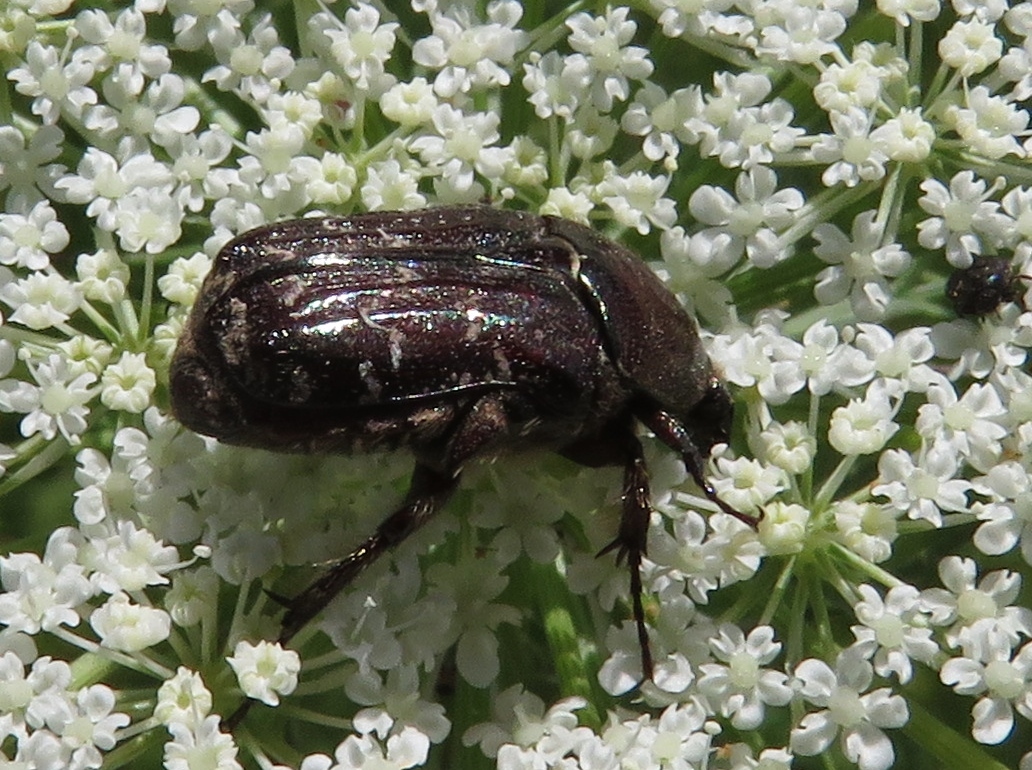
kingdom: Animalia
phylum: Arthropoda
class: Insecta
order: Coleoptera
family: Scarabaeidae
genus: Euphoria
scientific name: Euphoria sepulcralis
